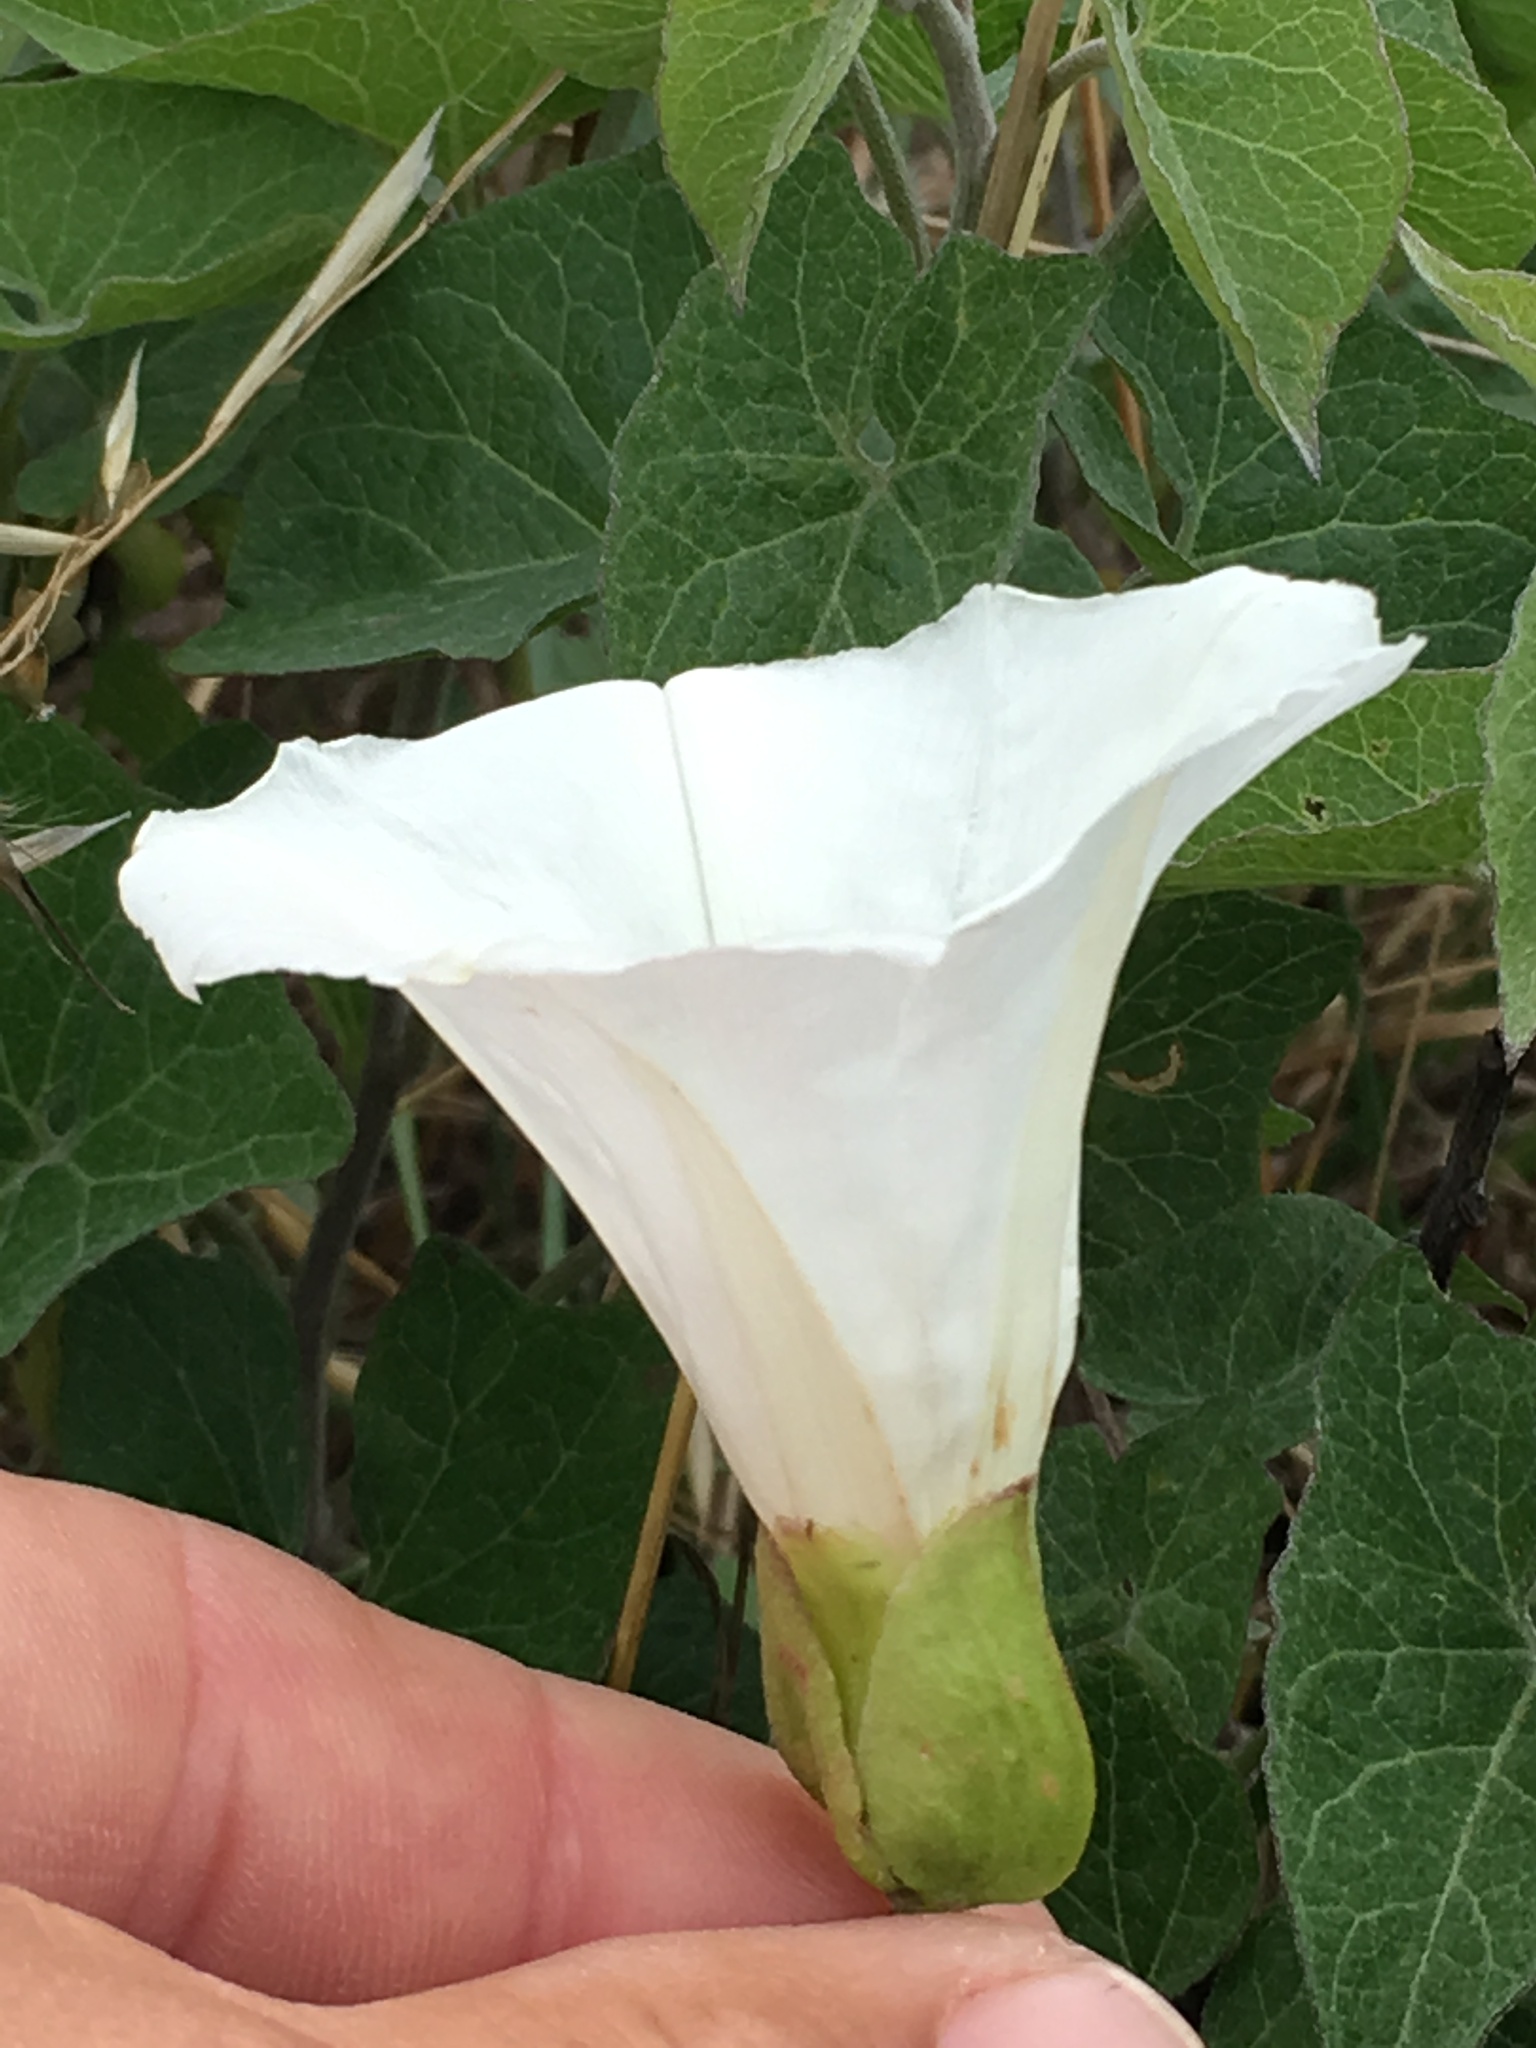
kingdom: Plantae
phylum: Tracheophyta
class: Magnoliopsida
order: Solanales
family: Convolvulaceae
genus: Calystegia
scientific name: Calystegia macrostegia
